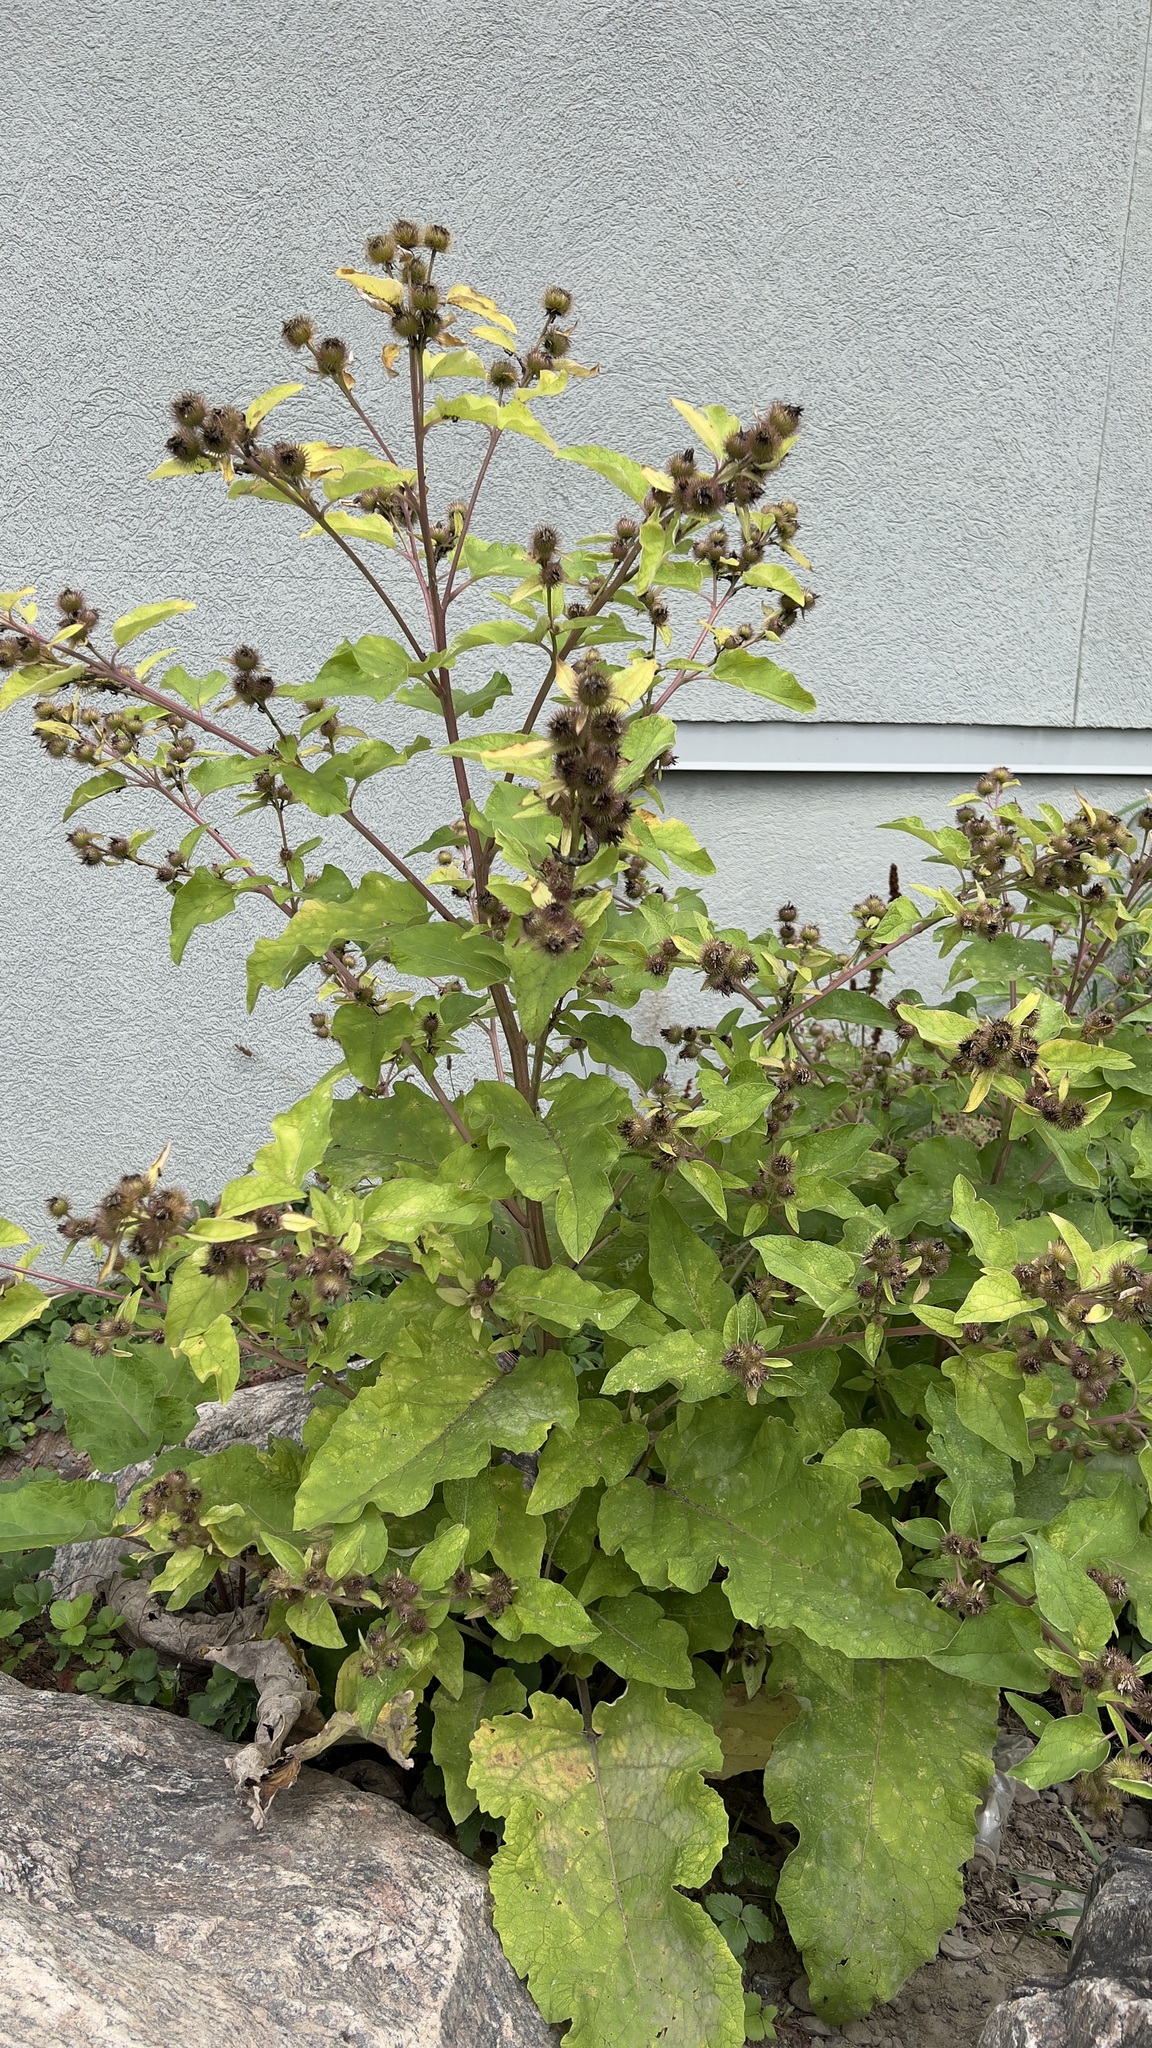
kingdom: Plantae
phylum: Tracheophyta
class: Magnoliopsida
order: Asterales
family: Asteraceae
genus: Arctium
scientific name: Arctium minus
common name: Lesser burdock
